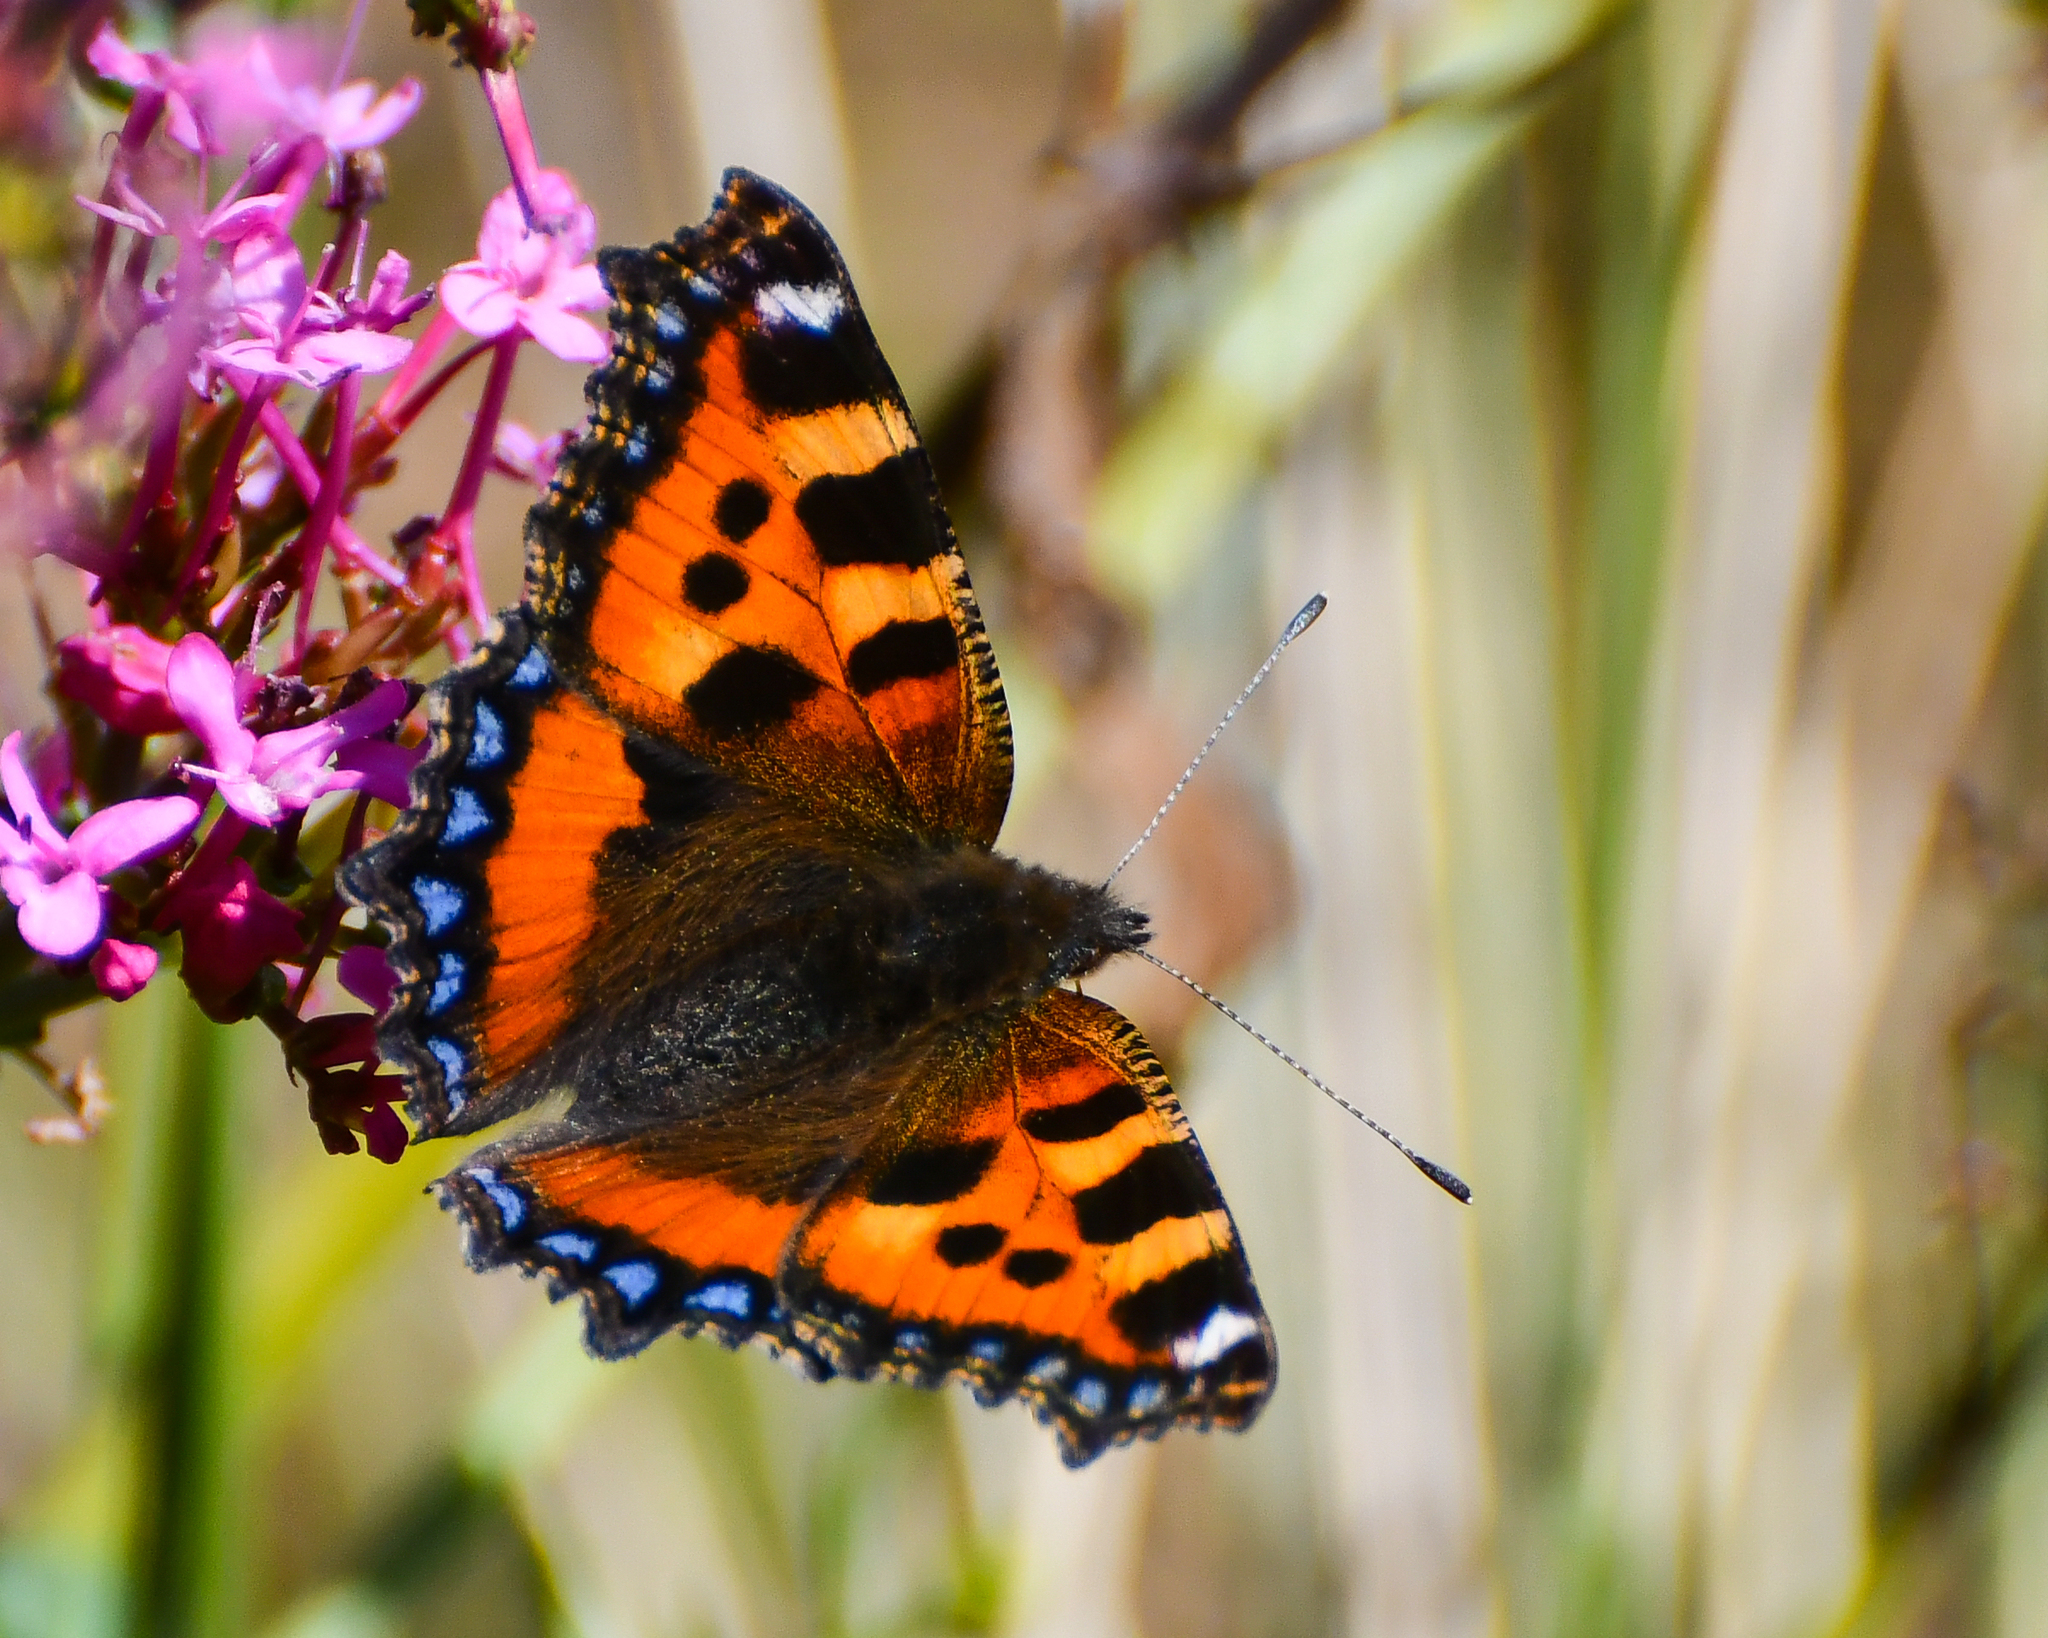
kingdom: Animalia
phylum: Arthropoda
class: Insecta
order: Lepidoptera
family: Nymphalidae
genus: Aglais
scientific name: Aglais urticae
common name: Small tortoiseshell
